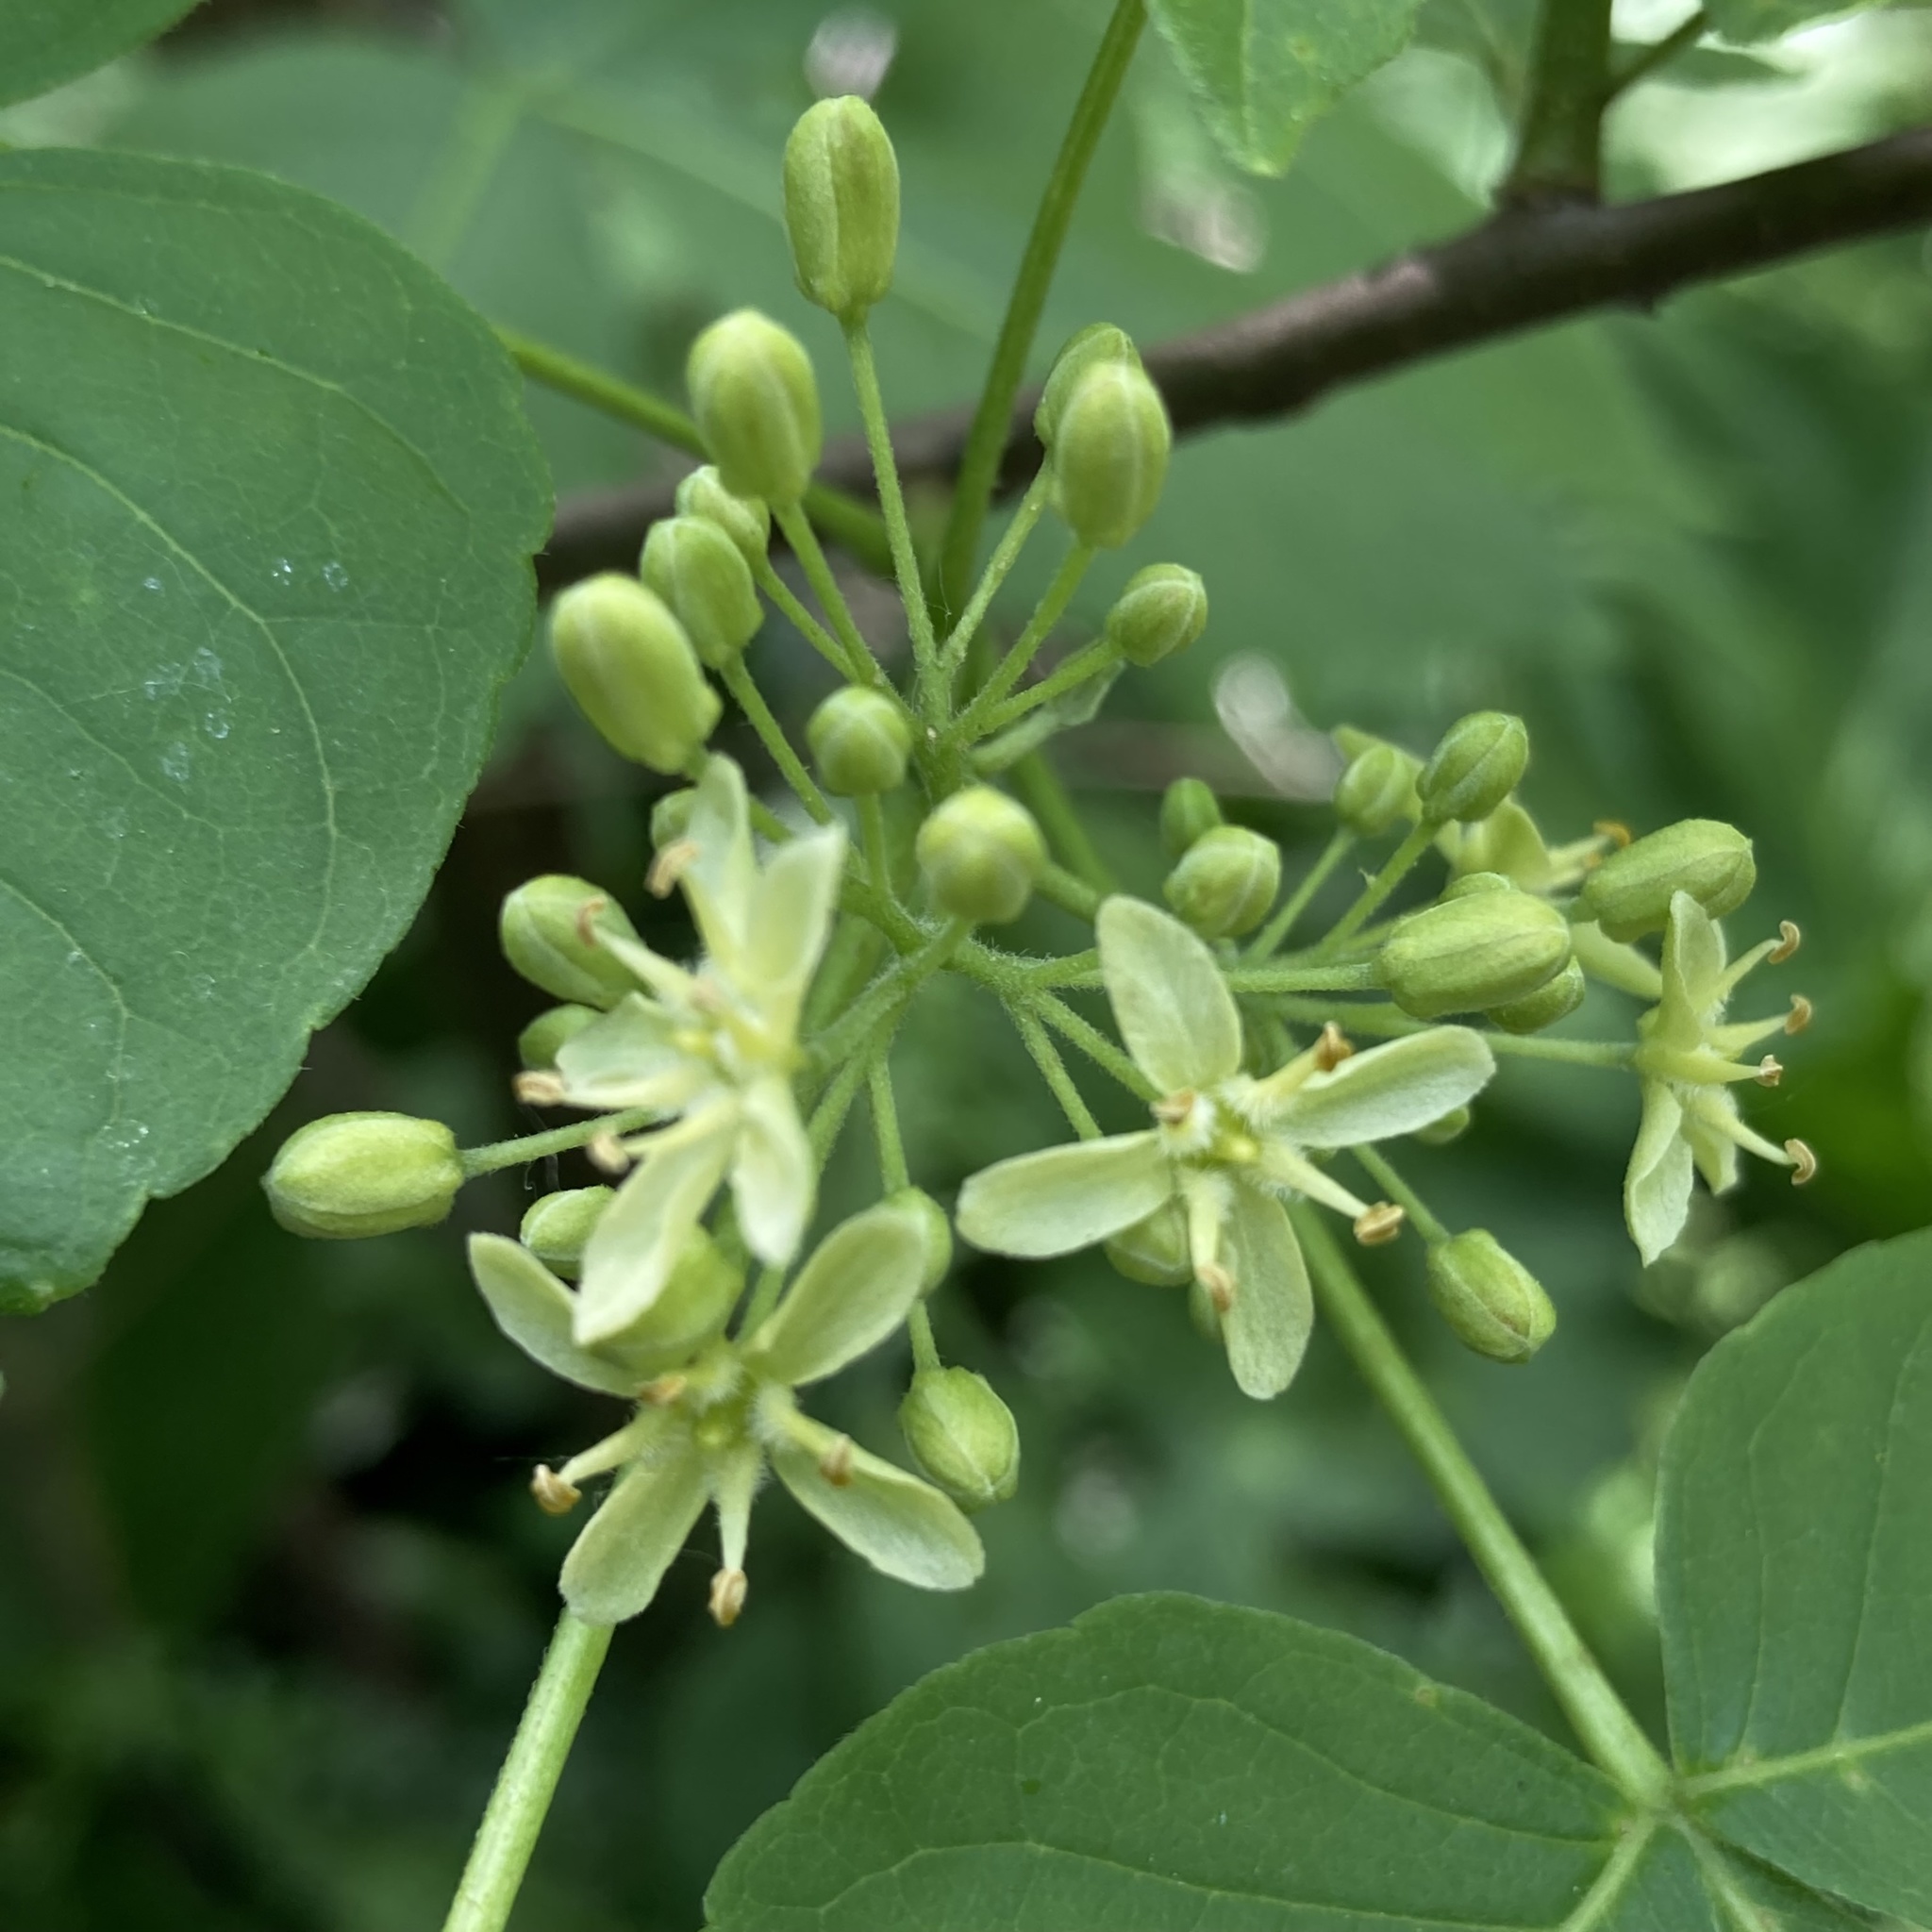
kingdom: Plantae
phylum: Tracheophyta
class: Magnoliopsida
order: Sapindales
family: Rutaceae
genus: Ptelea
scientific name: Ptelea trifoliata
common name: Common hop-tree
